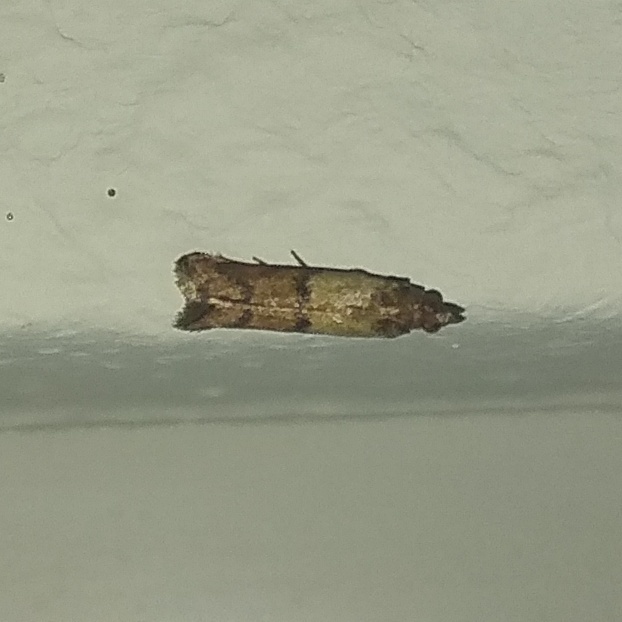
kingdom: Animalia
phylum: Arthropoda
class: Insecta
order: Lepidoptera
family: Pyralidae
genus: Plodia
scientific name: Plodia interpunctella
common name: Indian meal moth
